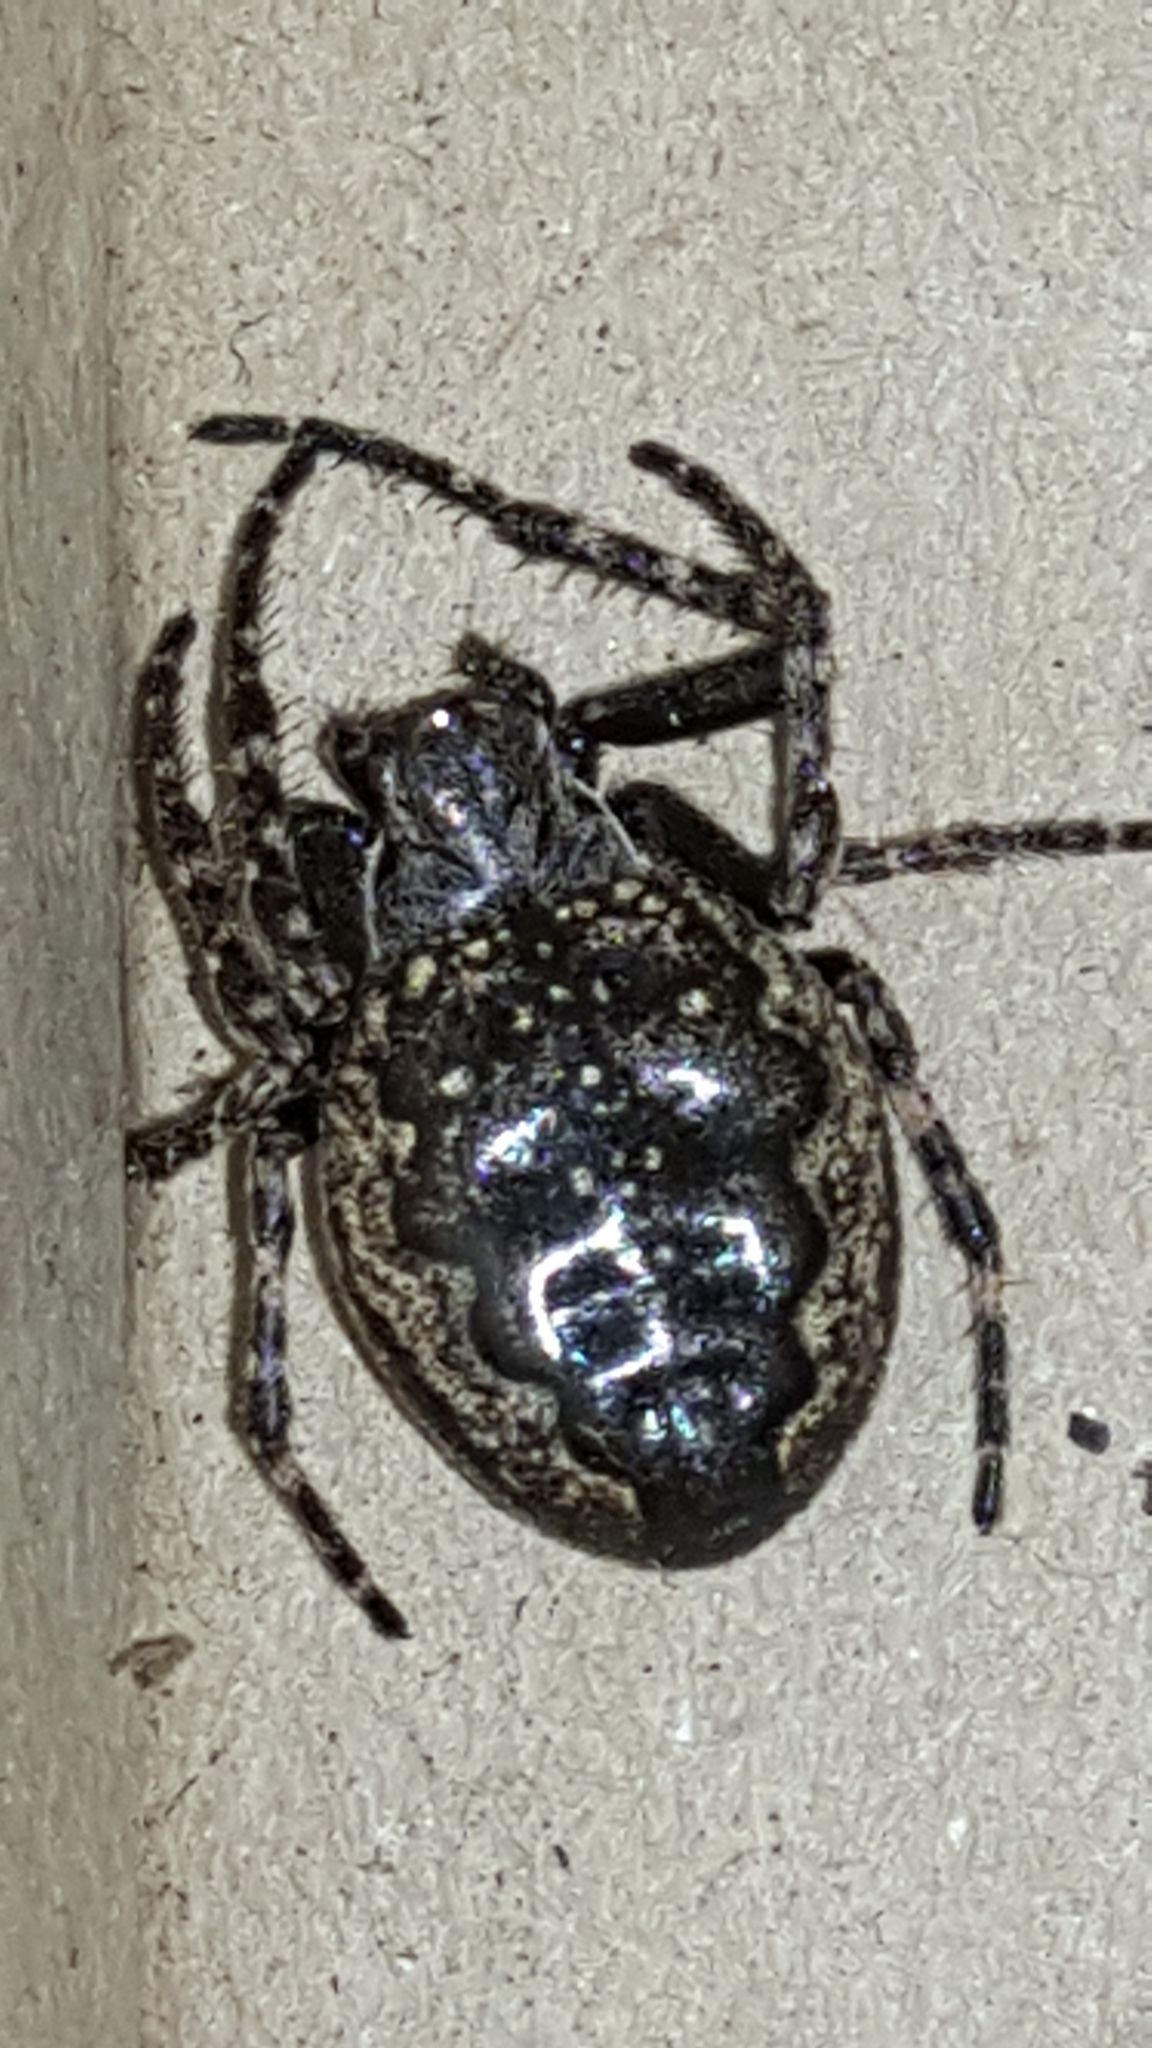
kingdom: Animalia
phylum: Arthropoda
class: Arachnida
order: Araneae
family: Araneidae
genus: Nuctenea
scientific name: Nuctenea umbratica
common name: Toad spider
